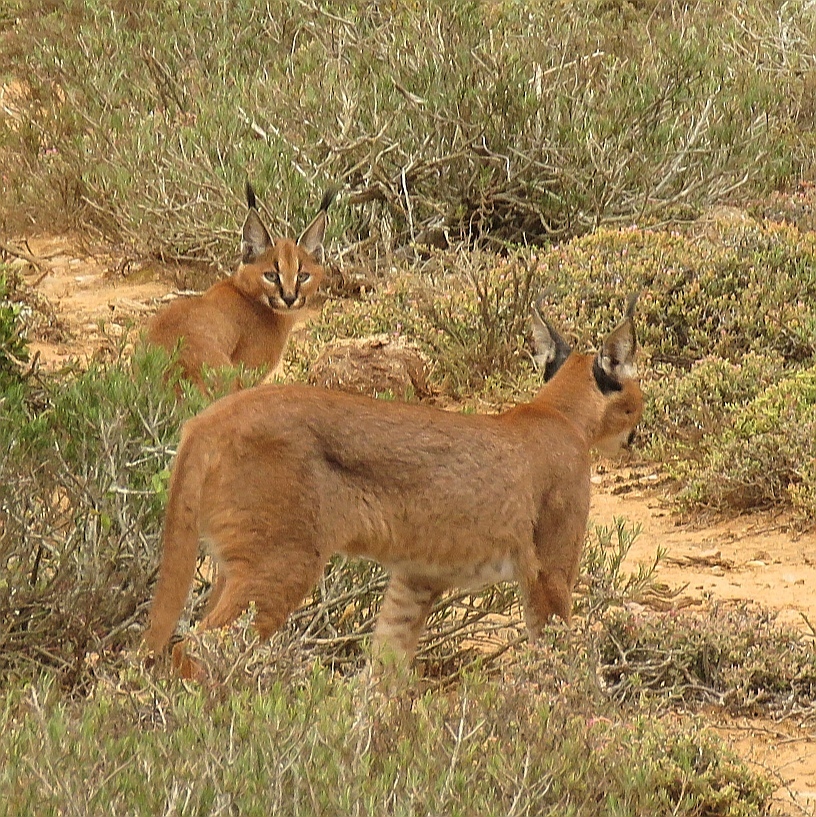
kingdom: Animalia
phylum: Chordata
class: Mammalia
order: Carnivora
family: Felidae
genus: Caracal
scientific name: Caracal caracal
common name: Caracal
